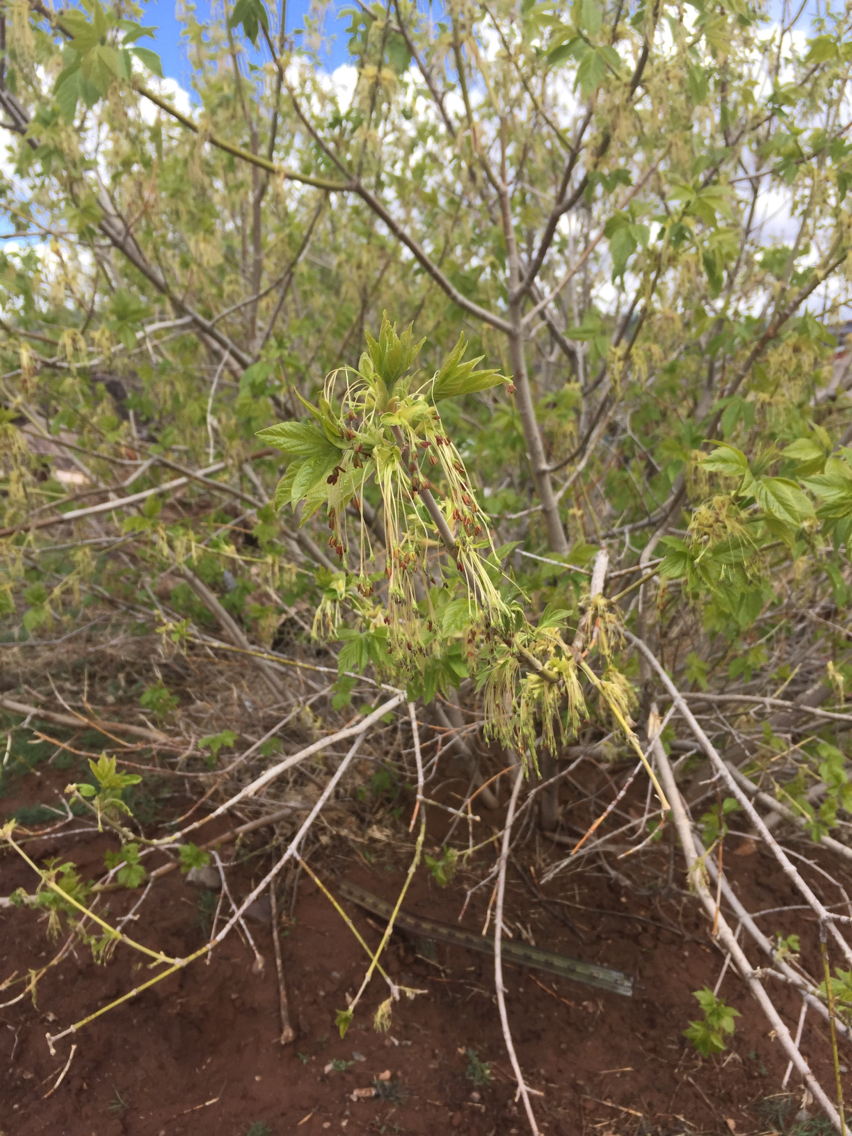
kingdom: Plantae
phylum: Tracheophyta
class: Magnoliopsida
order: Sapindales
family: Sapindaceae
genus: Acer
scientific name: Acer negundo
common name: Ashleaf maple
